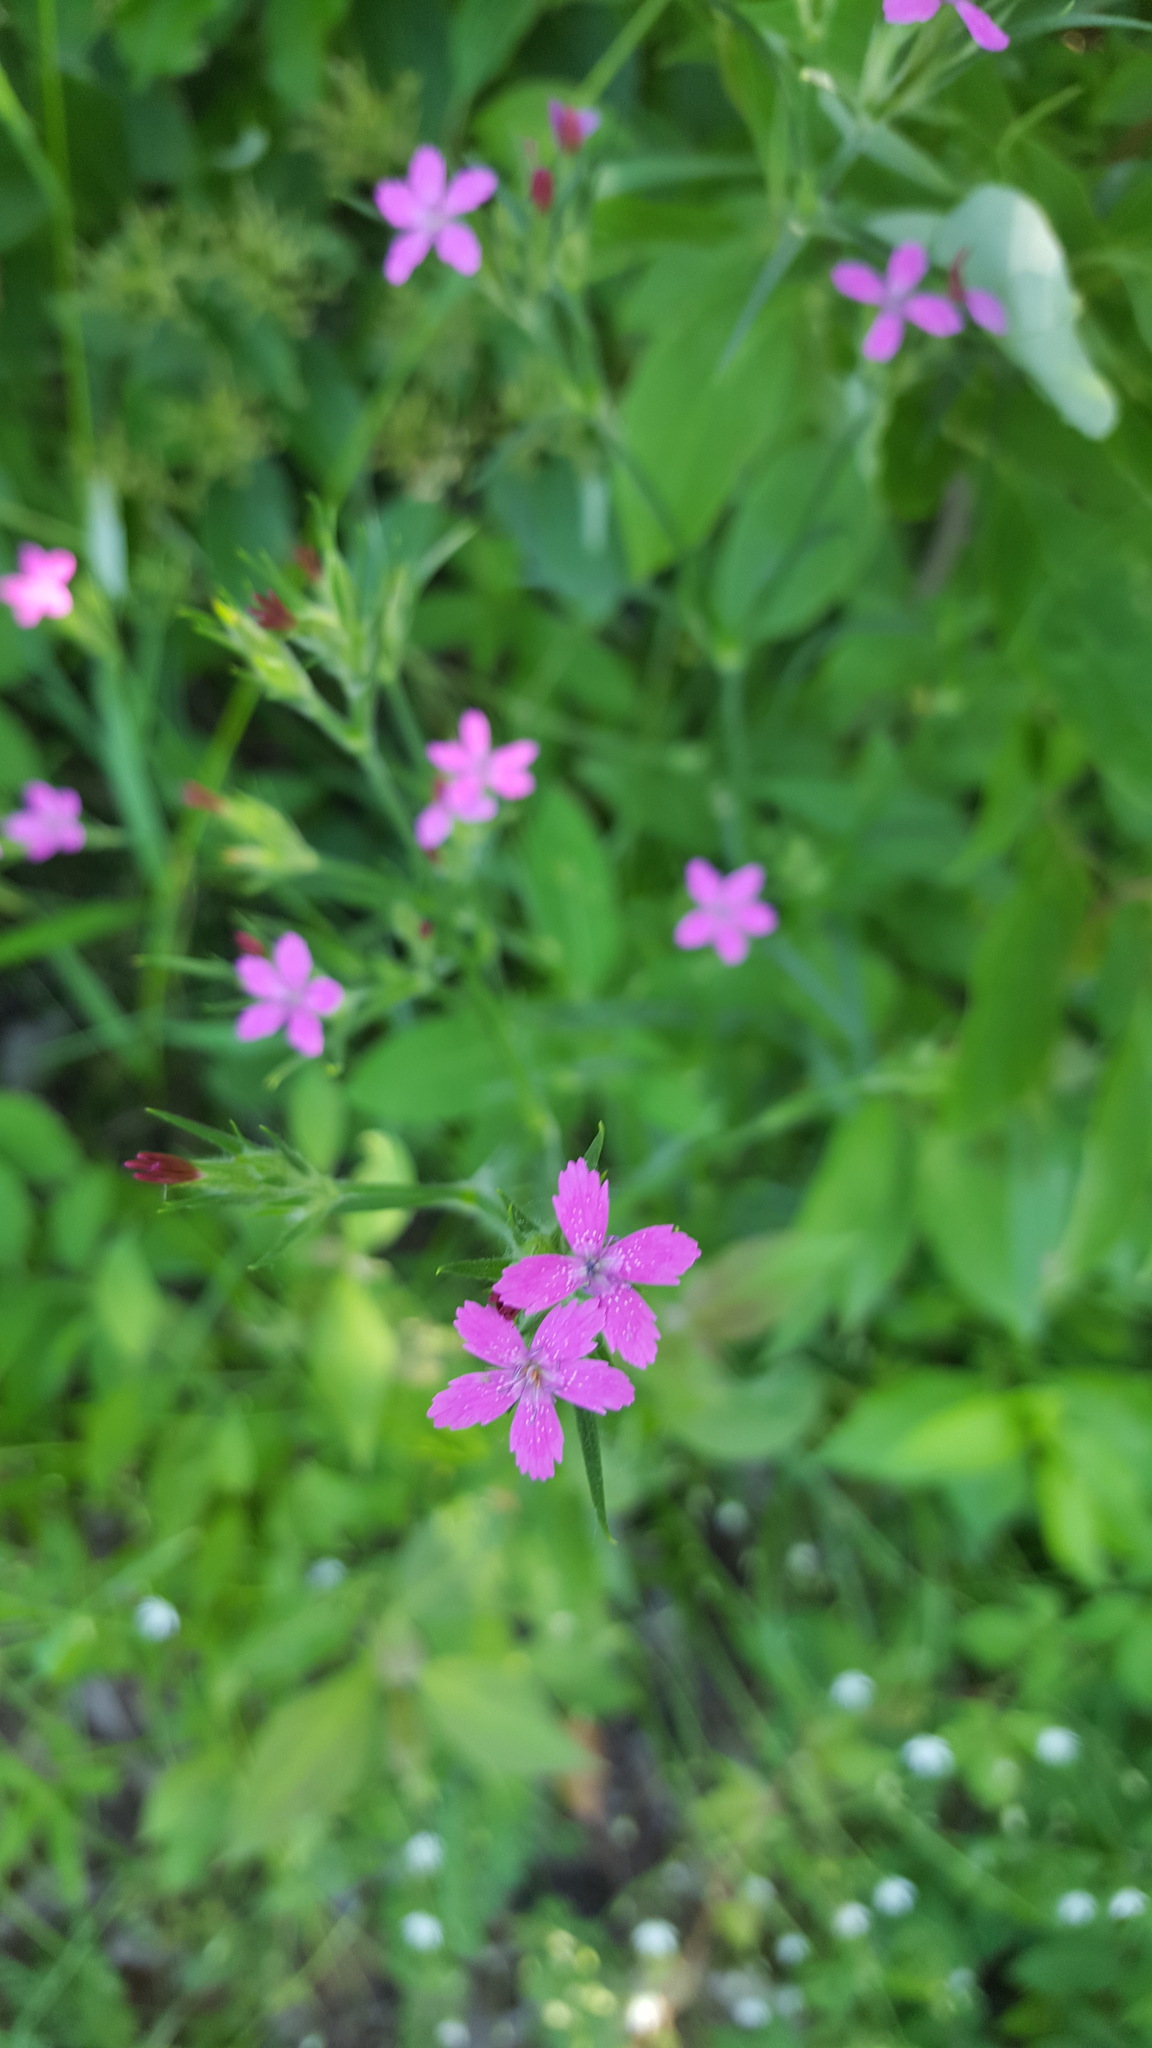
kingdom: Plantae
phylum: Tracheophyta
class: Magnoliopsida
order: Caryophyllales
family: Caryophyllaceae
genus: Dianthus
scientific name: Dianthus armeria
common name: Deptford pink
